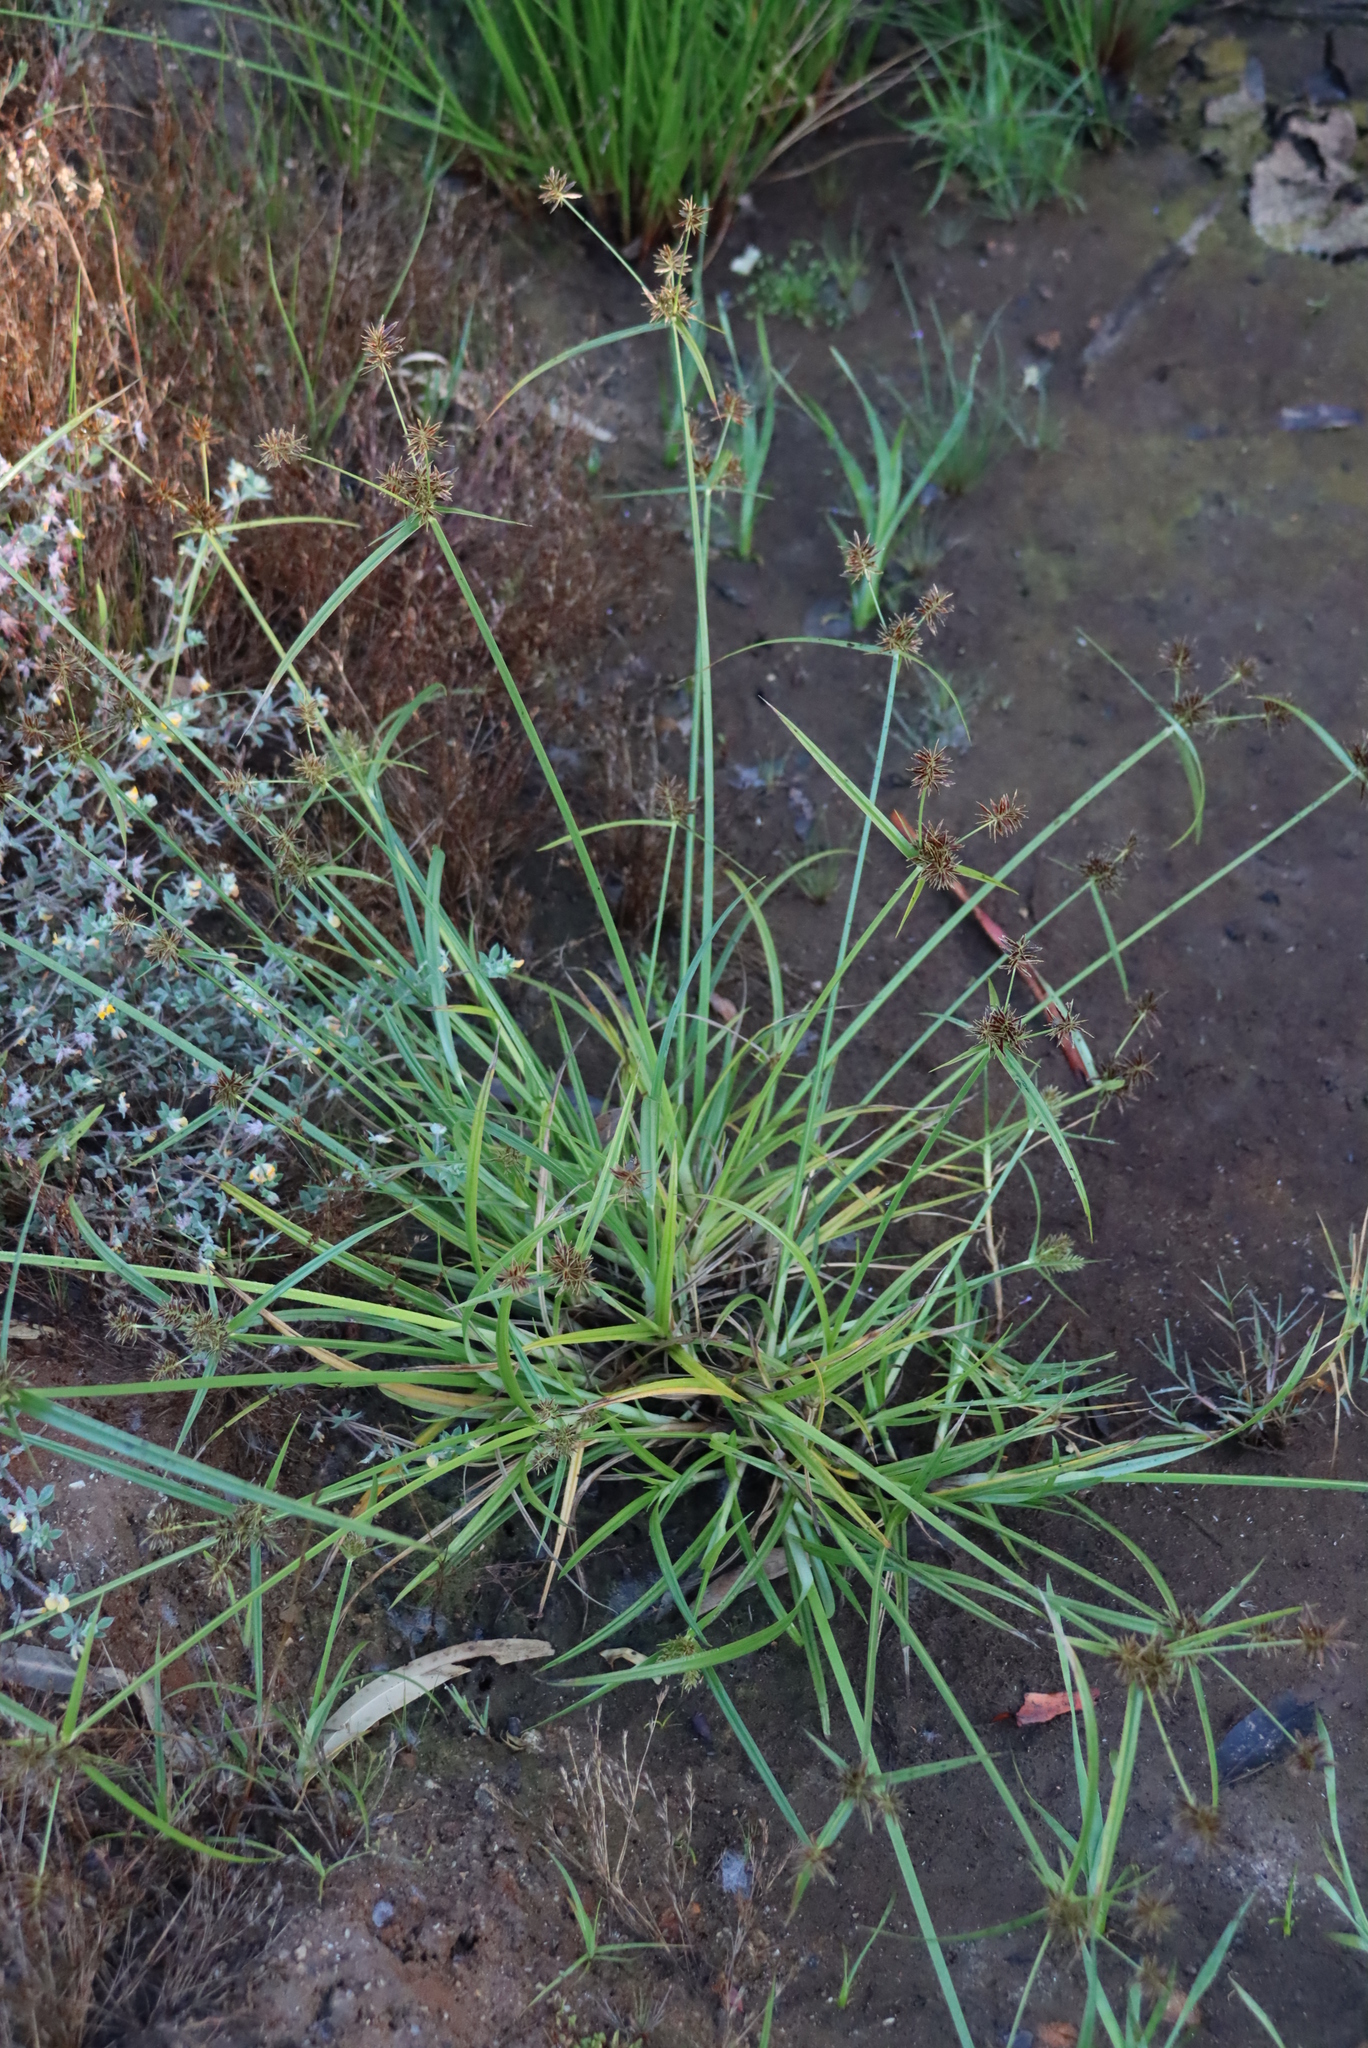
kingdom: Plantae
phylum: Tracheophyta
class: Liliopsida
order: Poales
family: Cyperaceae
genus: Cyperus
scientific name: Cyperus congestus
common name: Dense flat sedge
